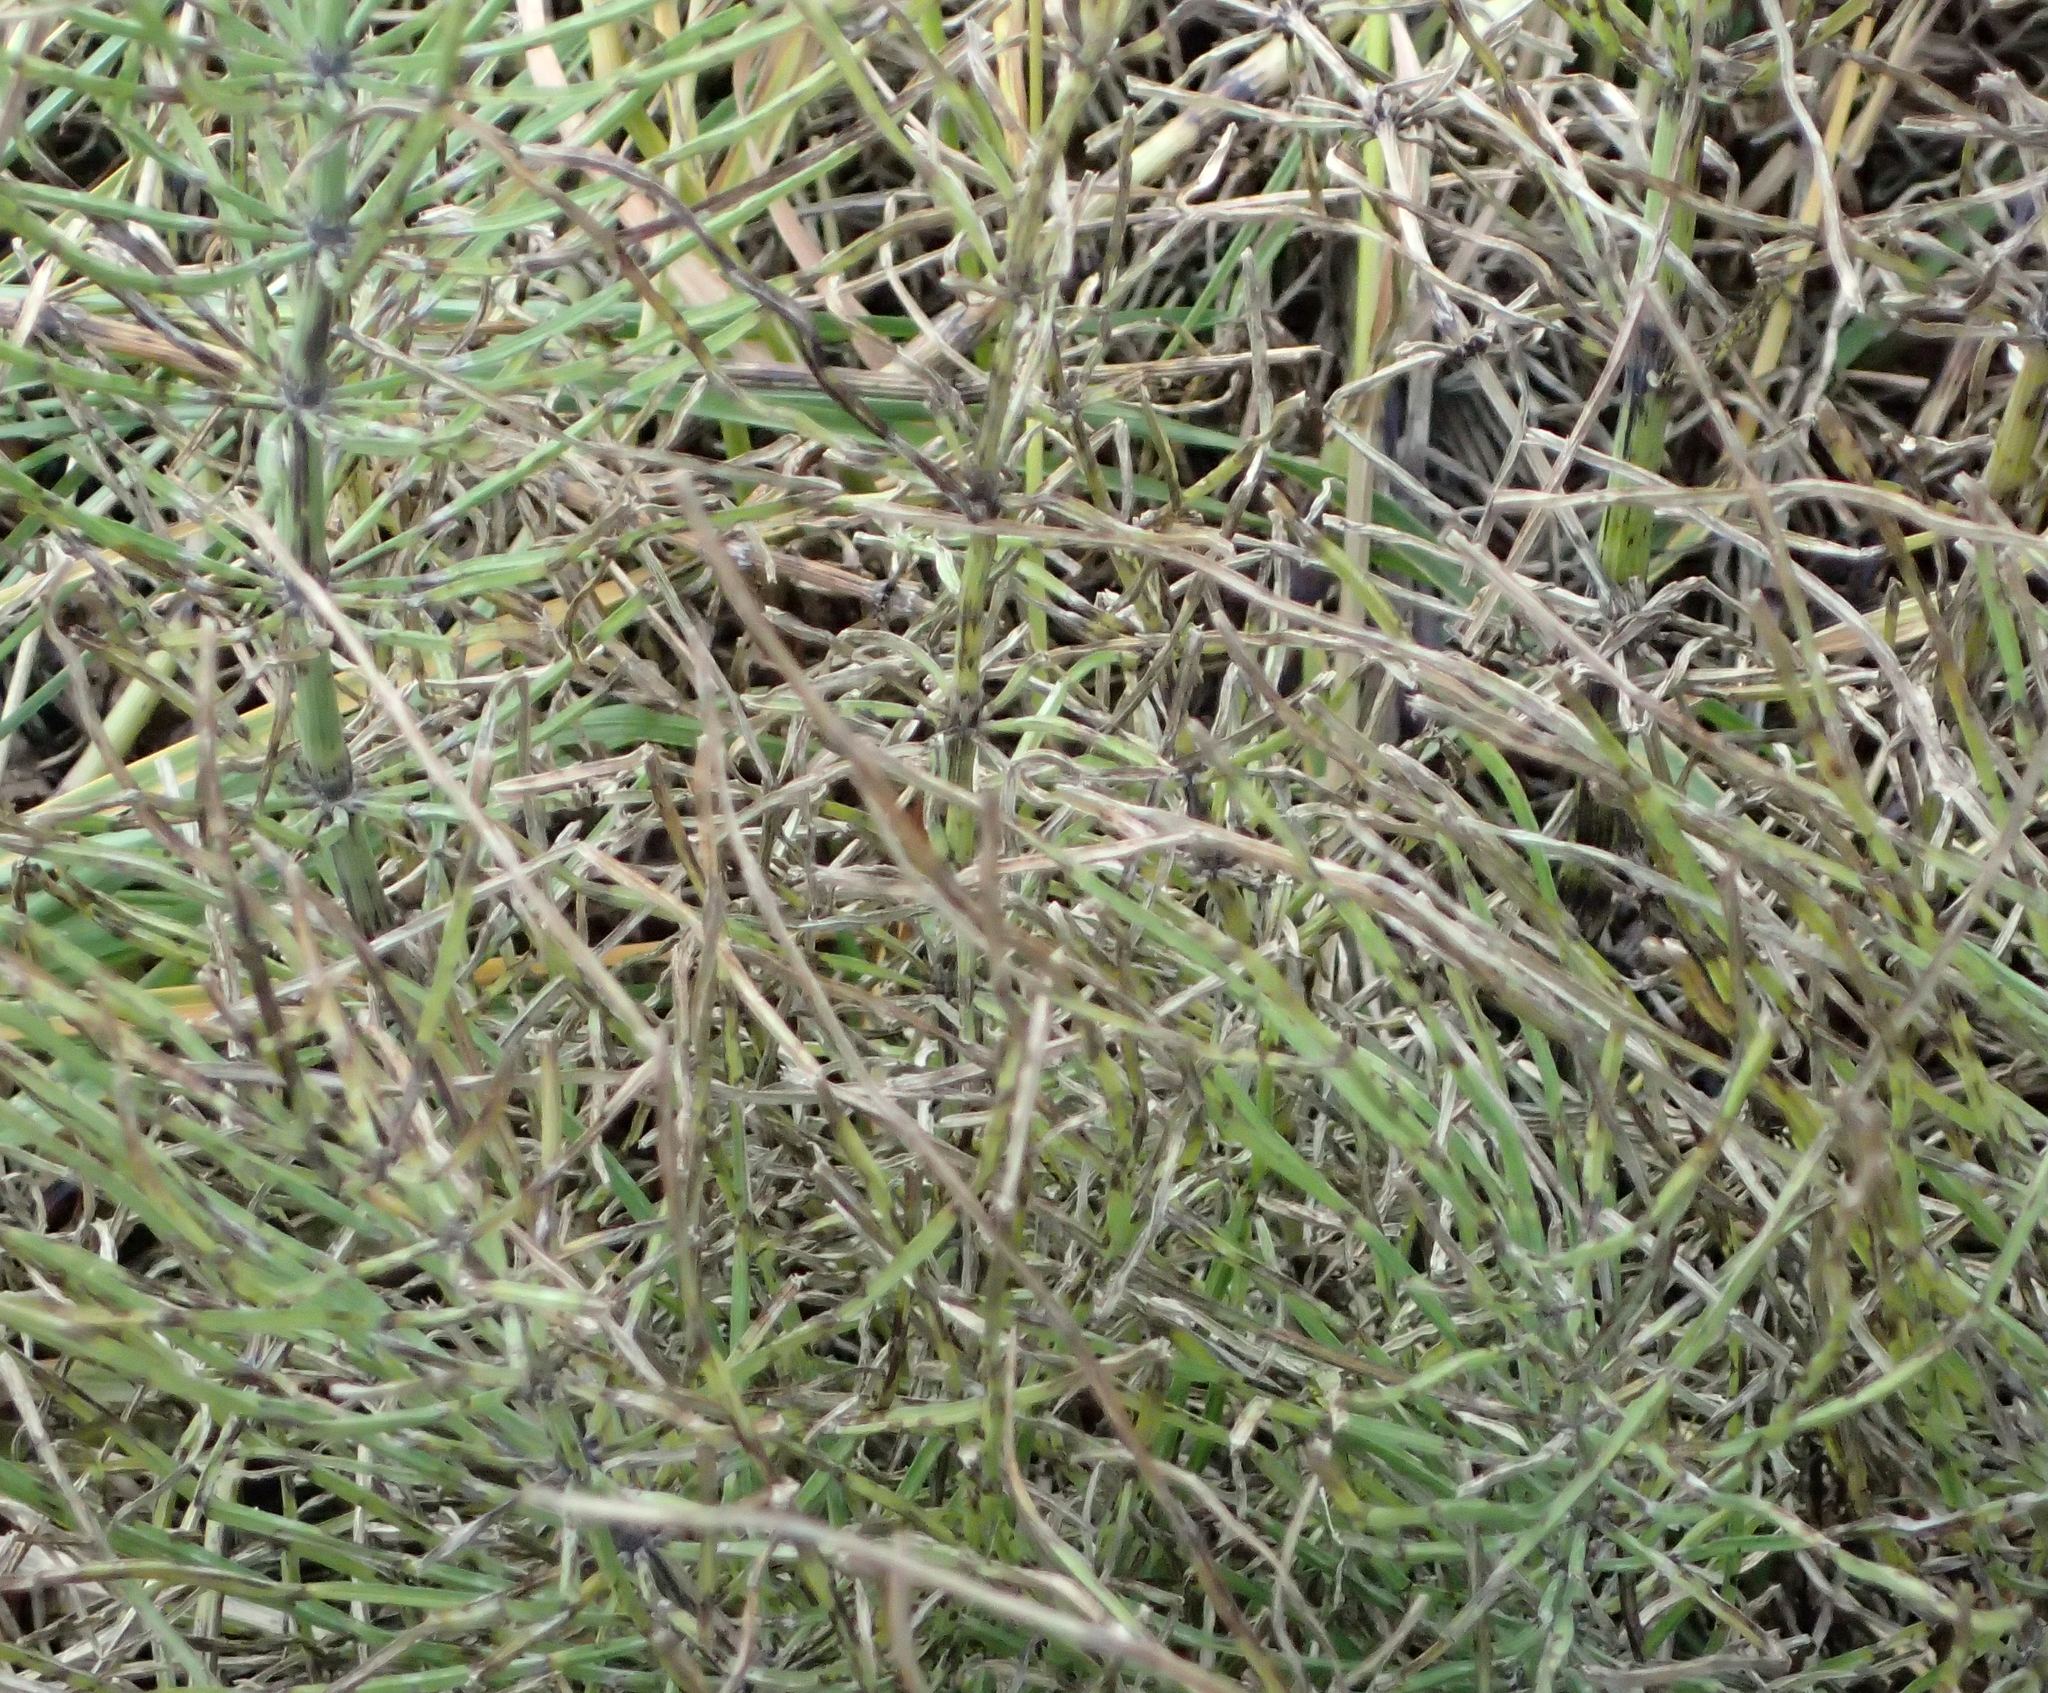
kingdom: Plantae
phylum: Tracheophyta
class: Polypodiopsida
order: Equisetales
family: Equisetaceae
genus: Equisetum
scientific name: Equisetum arvense
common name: Field horsetail
